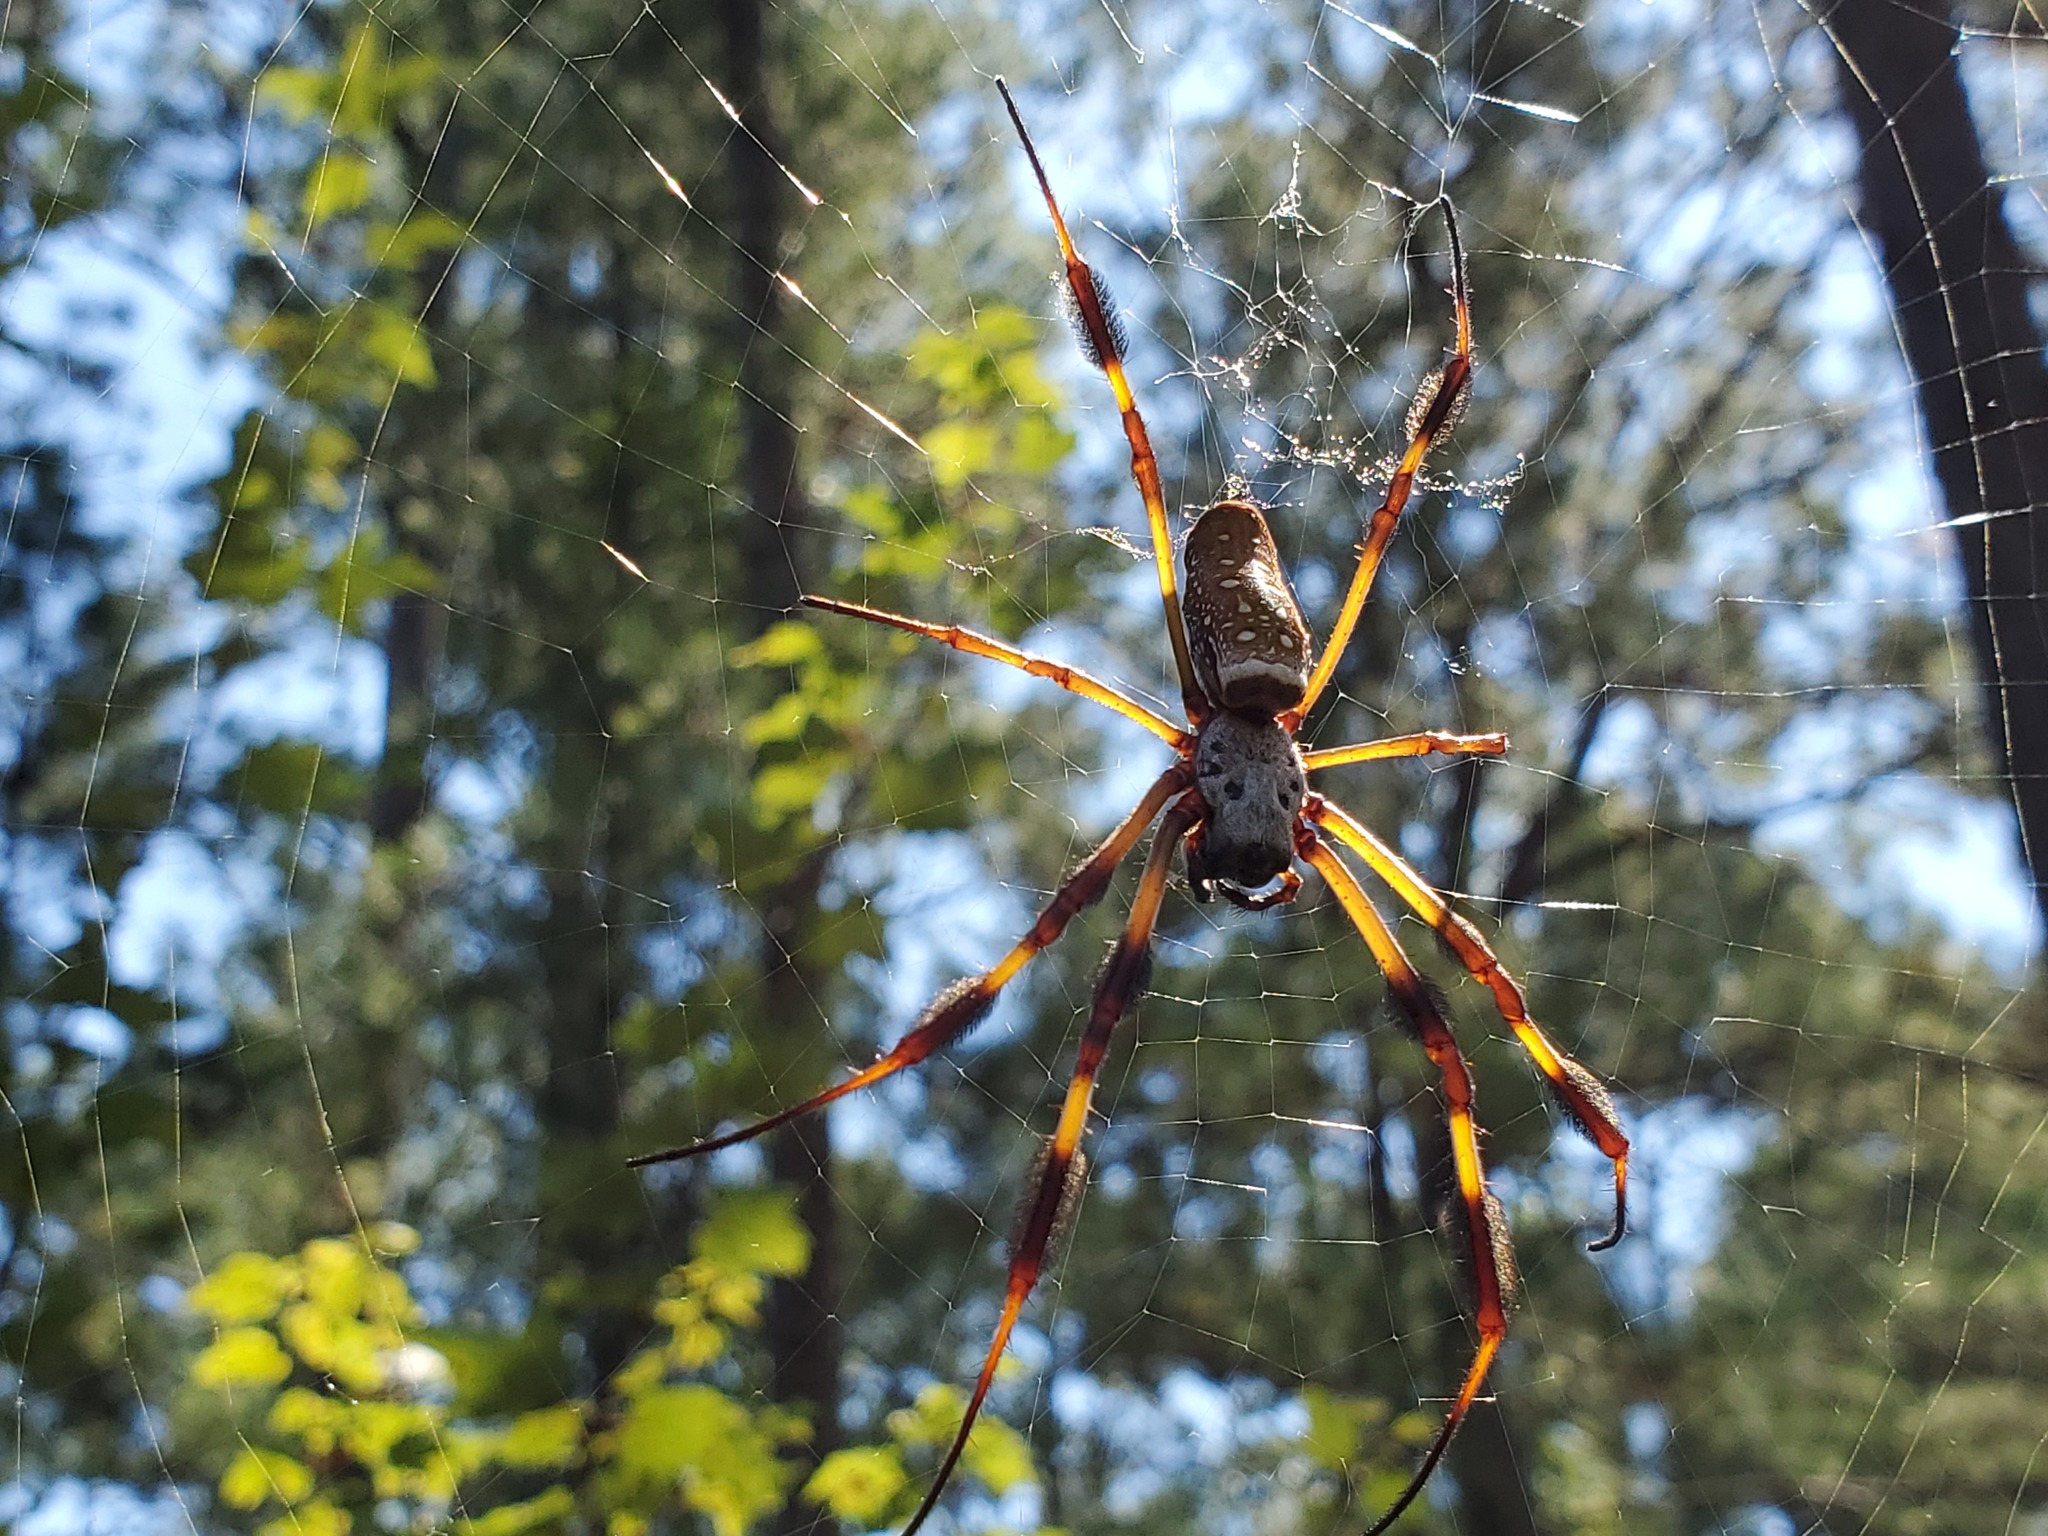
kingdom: Animalia
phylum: Arthropoda
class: Arachnida
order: Araneae
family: Araneidae
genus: Trichonephila
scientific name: Trichonephila clavipes
